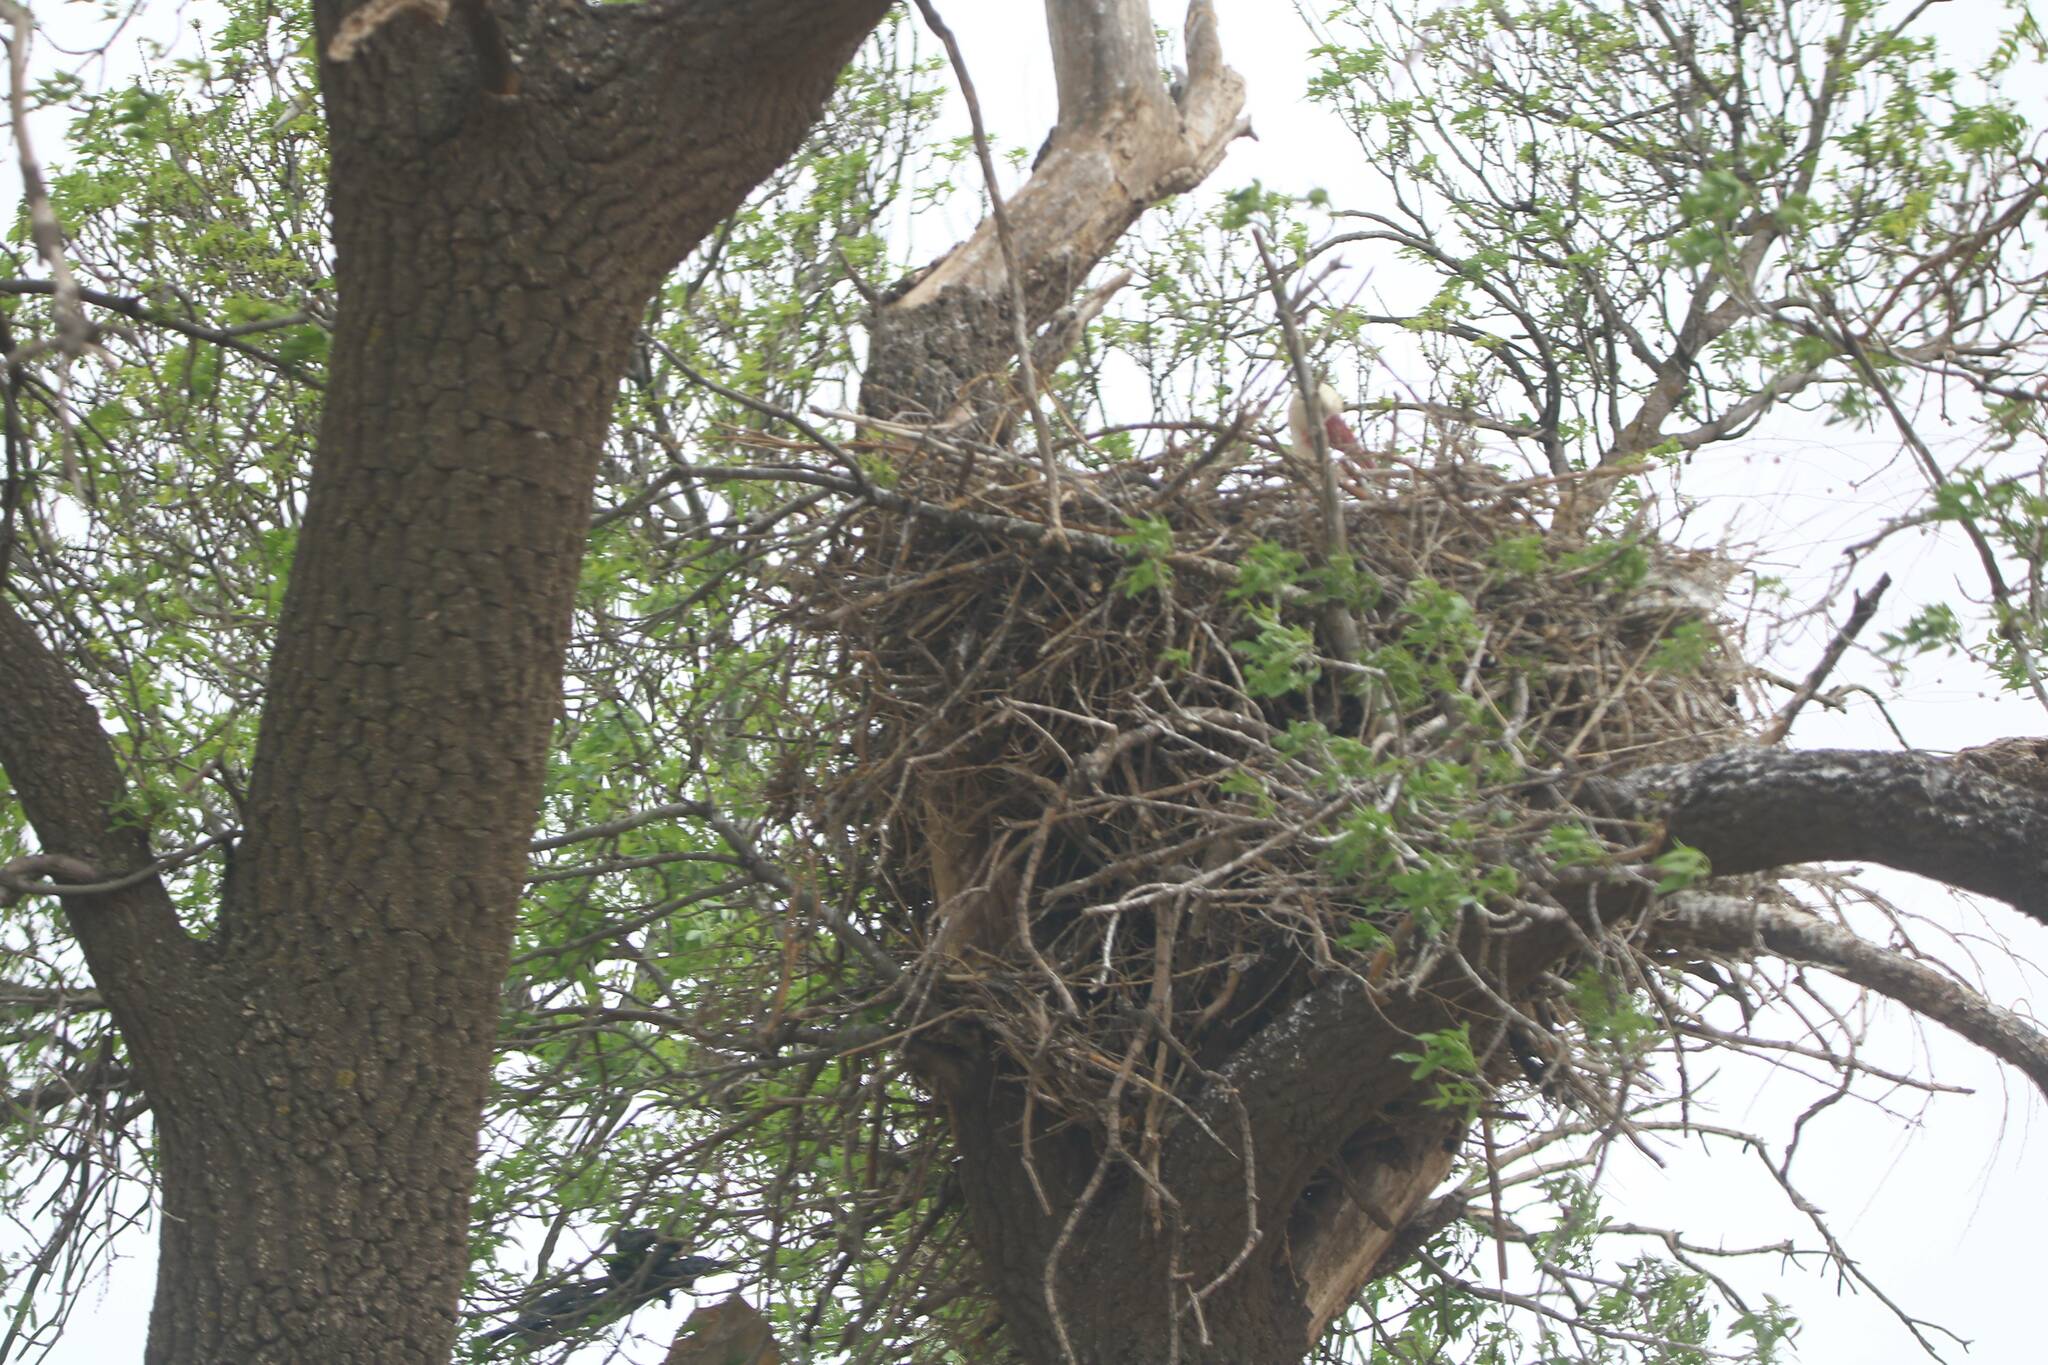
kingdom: Animalia
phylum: Chordata
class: Aves
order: Ciconiiformes
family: Ciconiidae
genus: Ciconia
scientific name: Ciconia ciconia
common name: White stork
